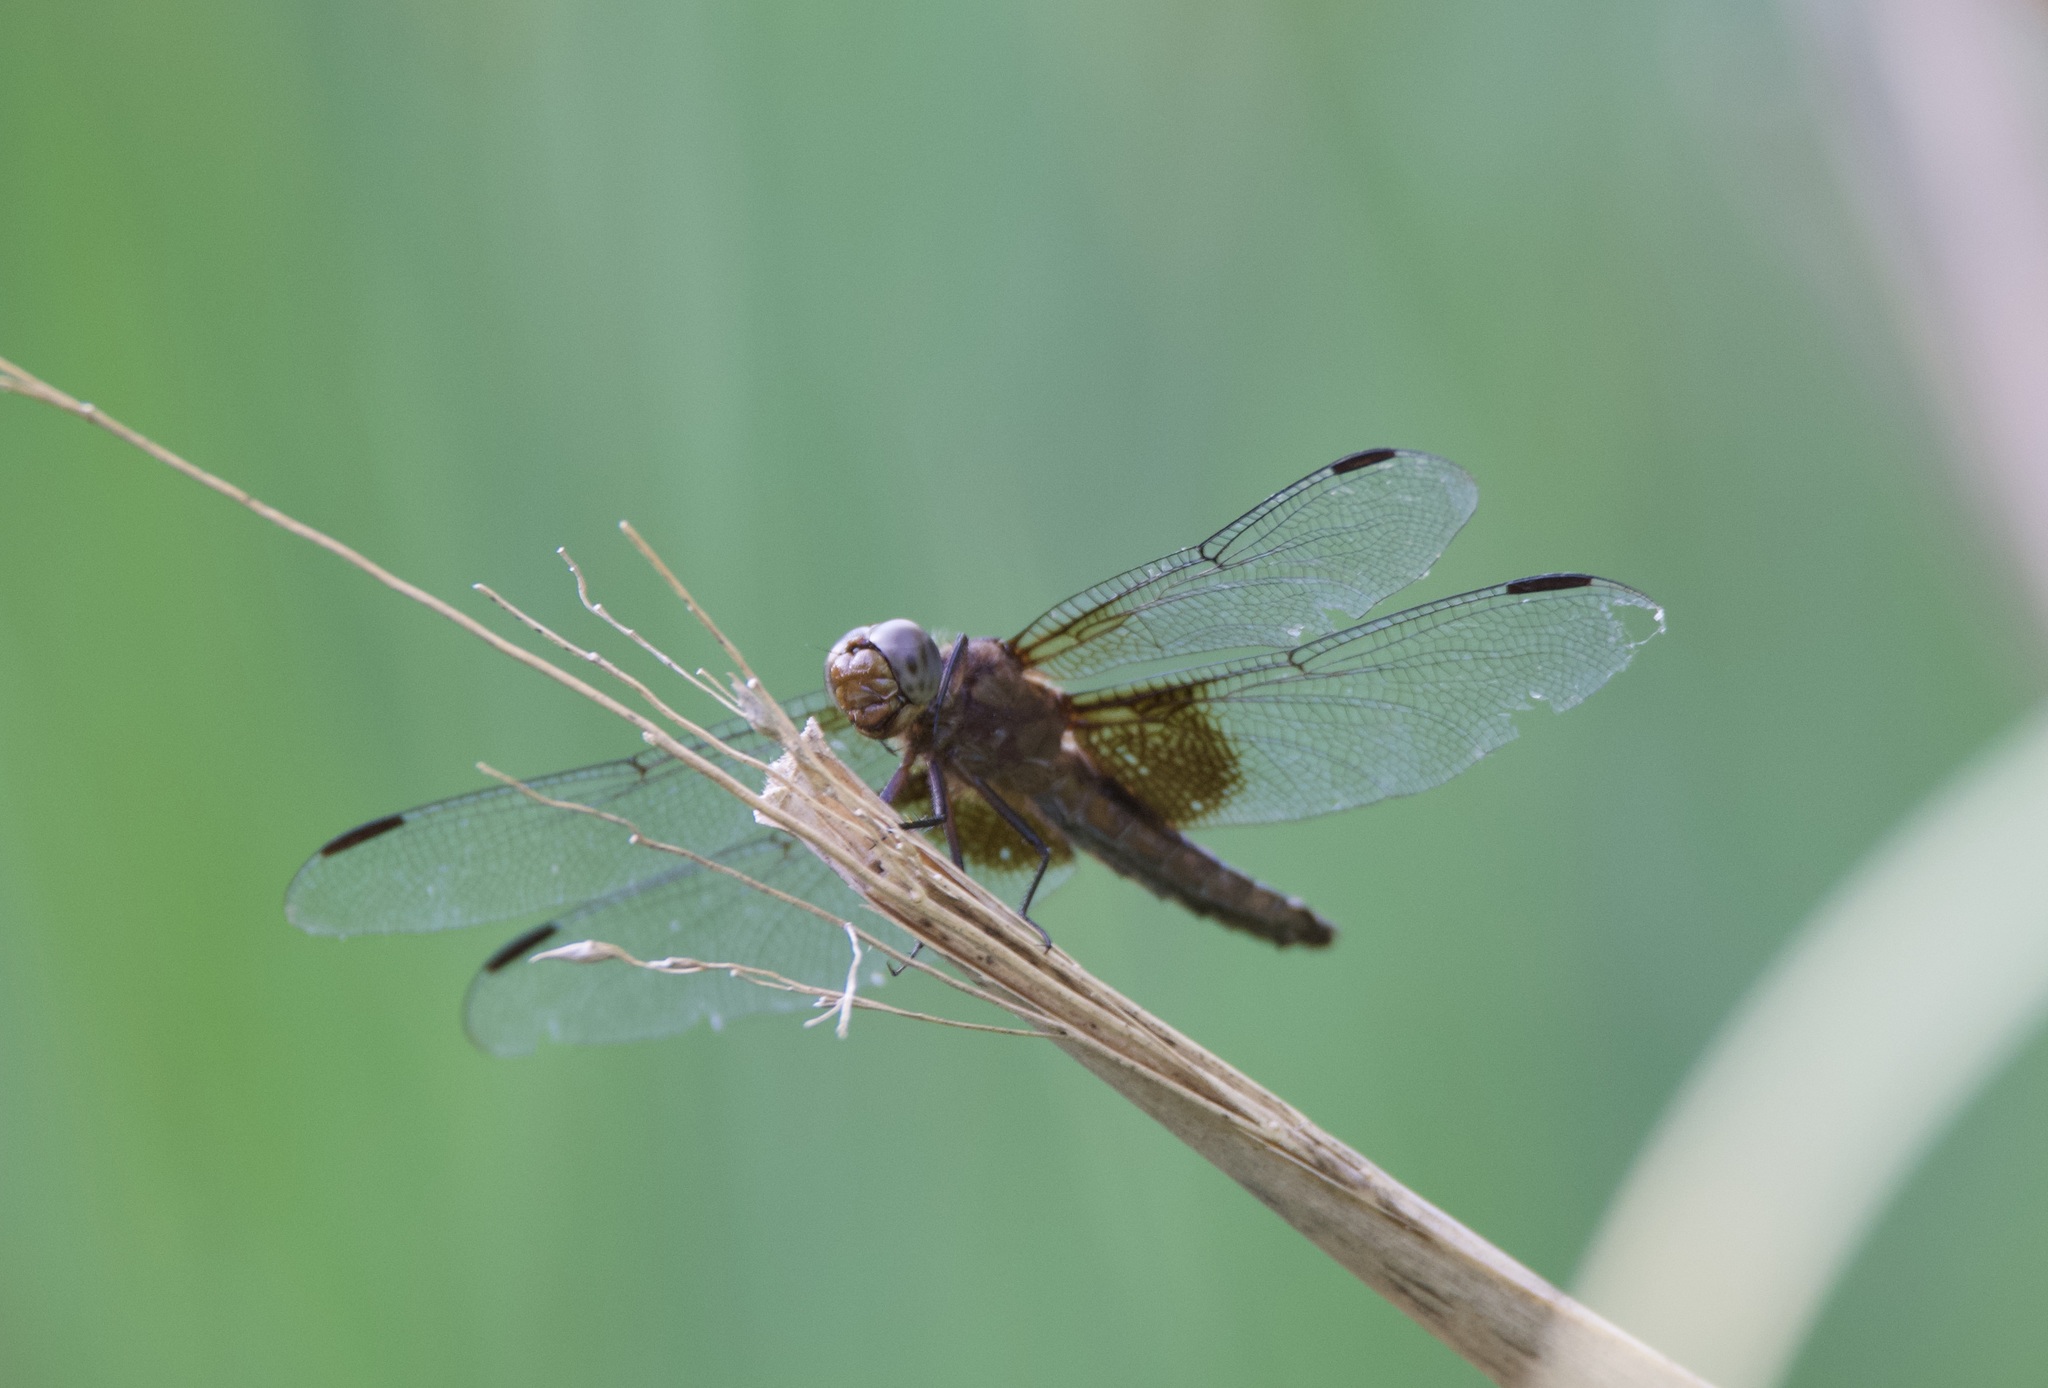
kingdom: Animalia
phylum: Arthropoda
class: Insecta
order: Odonata
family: Libellulidae
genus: Libellula
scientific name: Libellula luctuosa
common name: Widow skimmer
